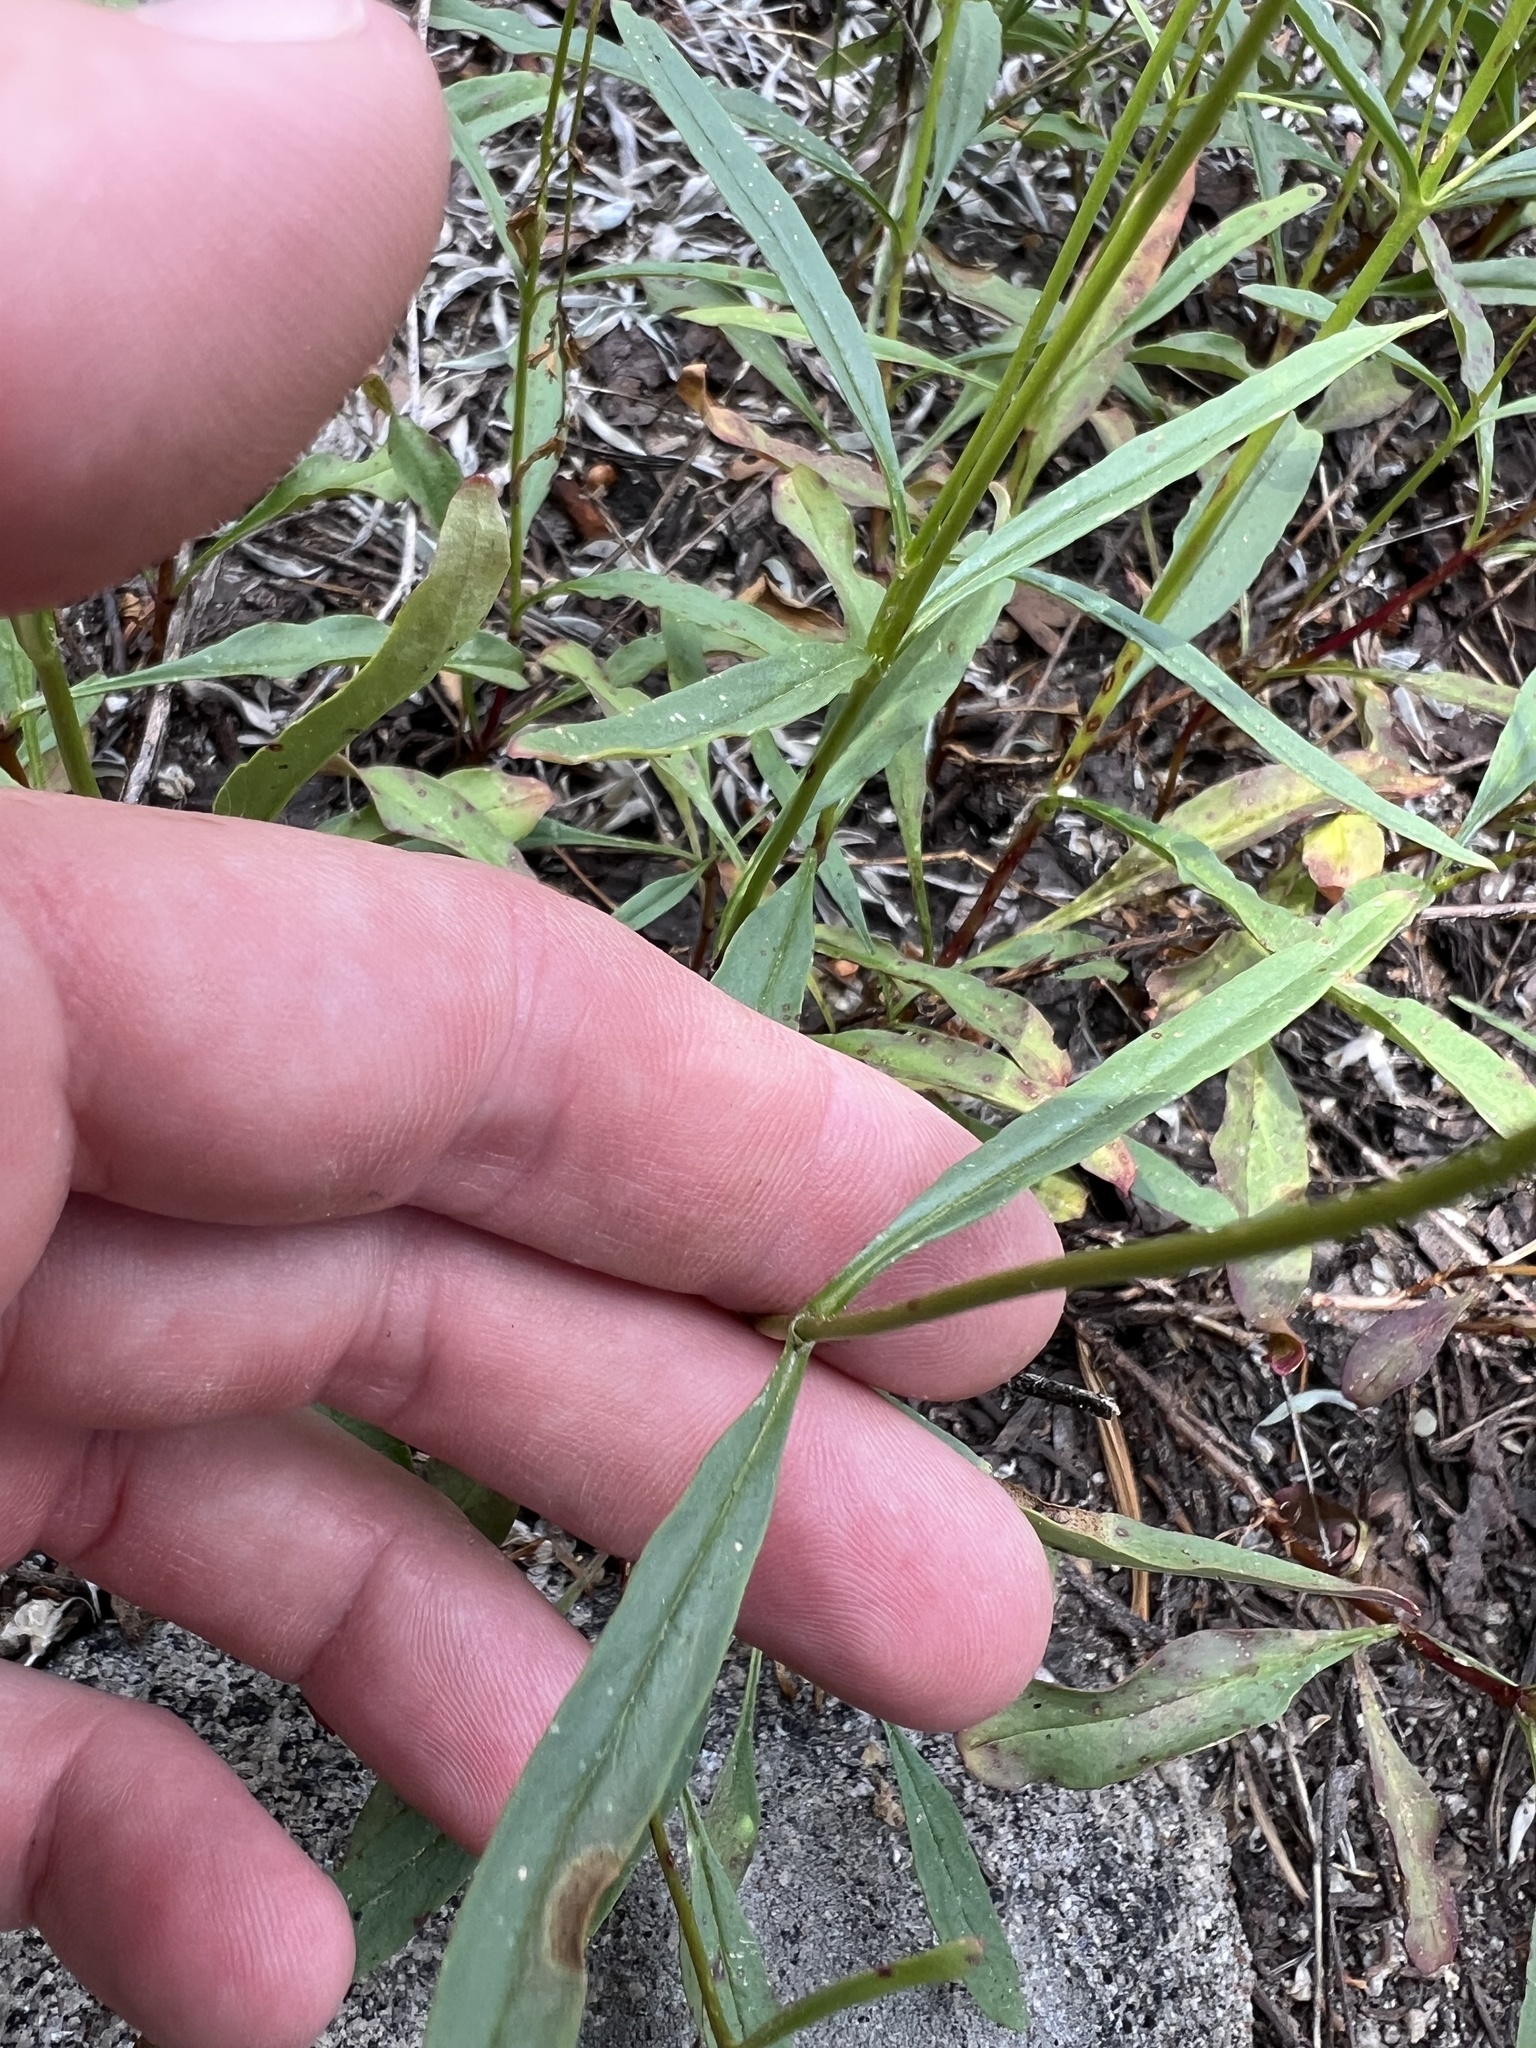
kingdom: Plantae
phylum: Tracheophyta
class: Magnoliopsida
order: Lamiales
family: Plantaginaceae
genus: Penstemon
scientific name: Penstemon gracilentus
